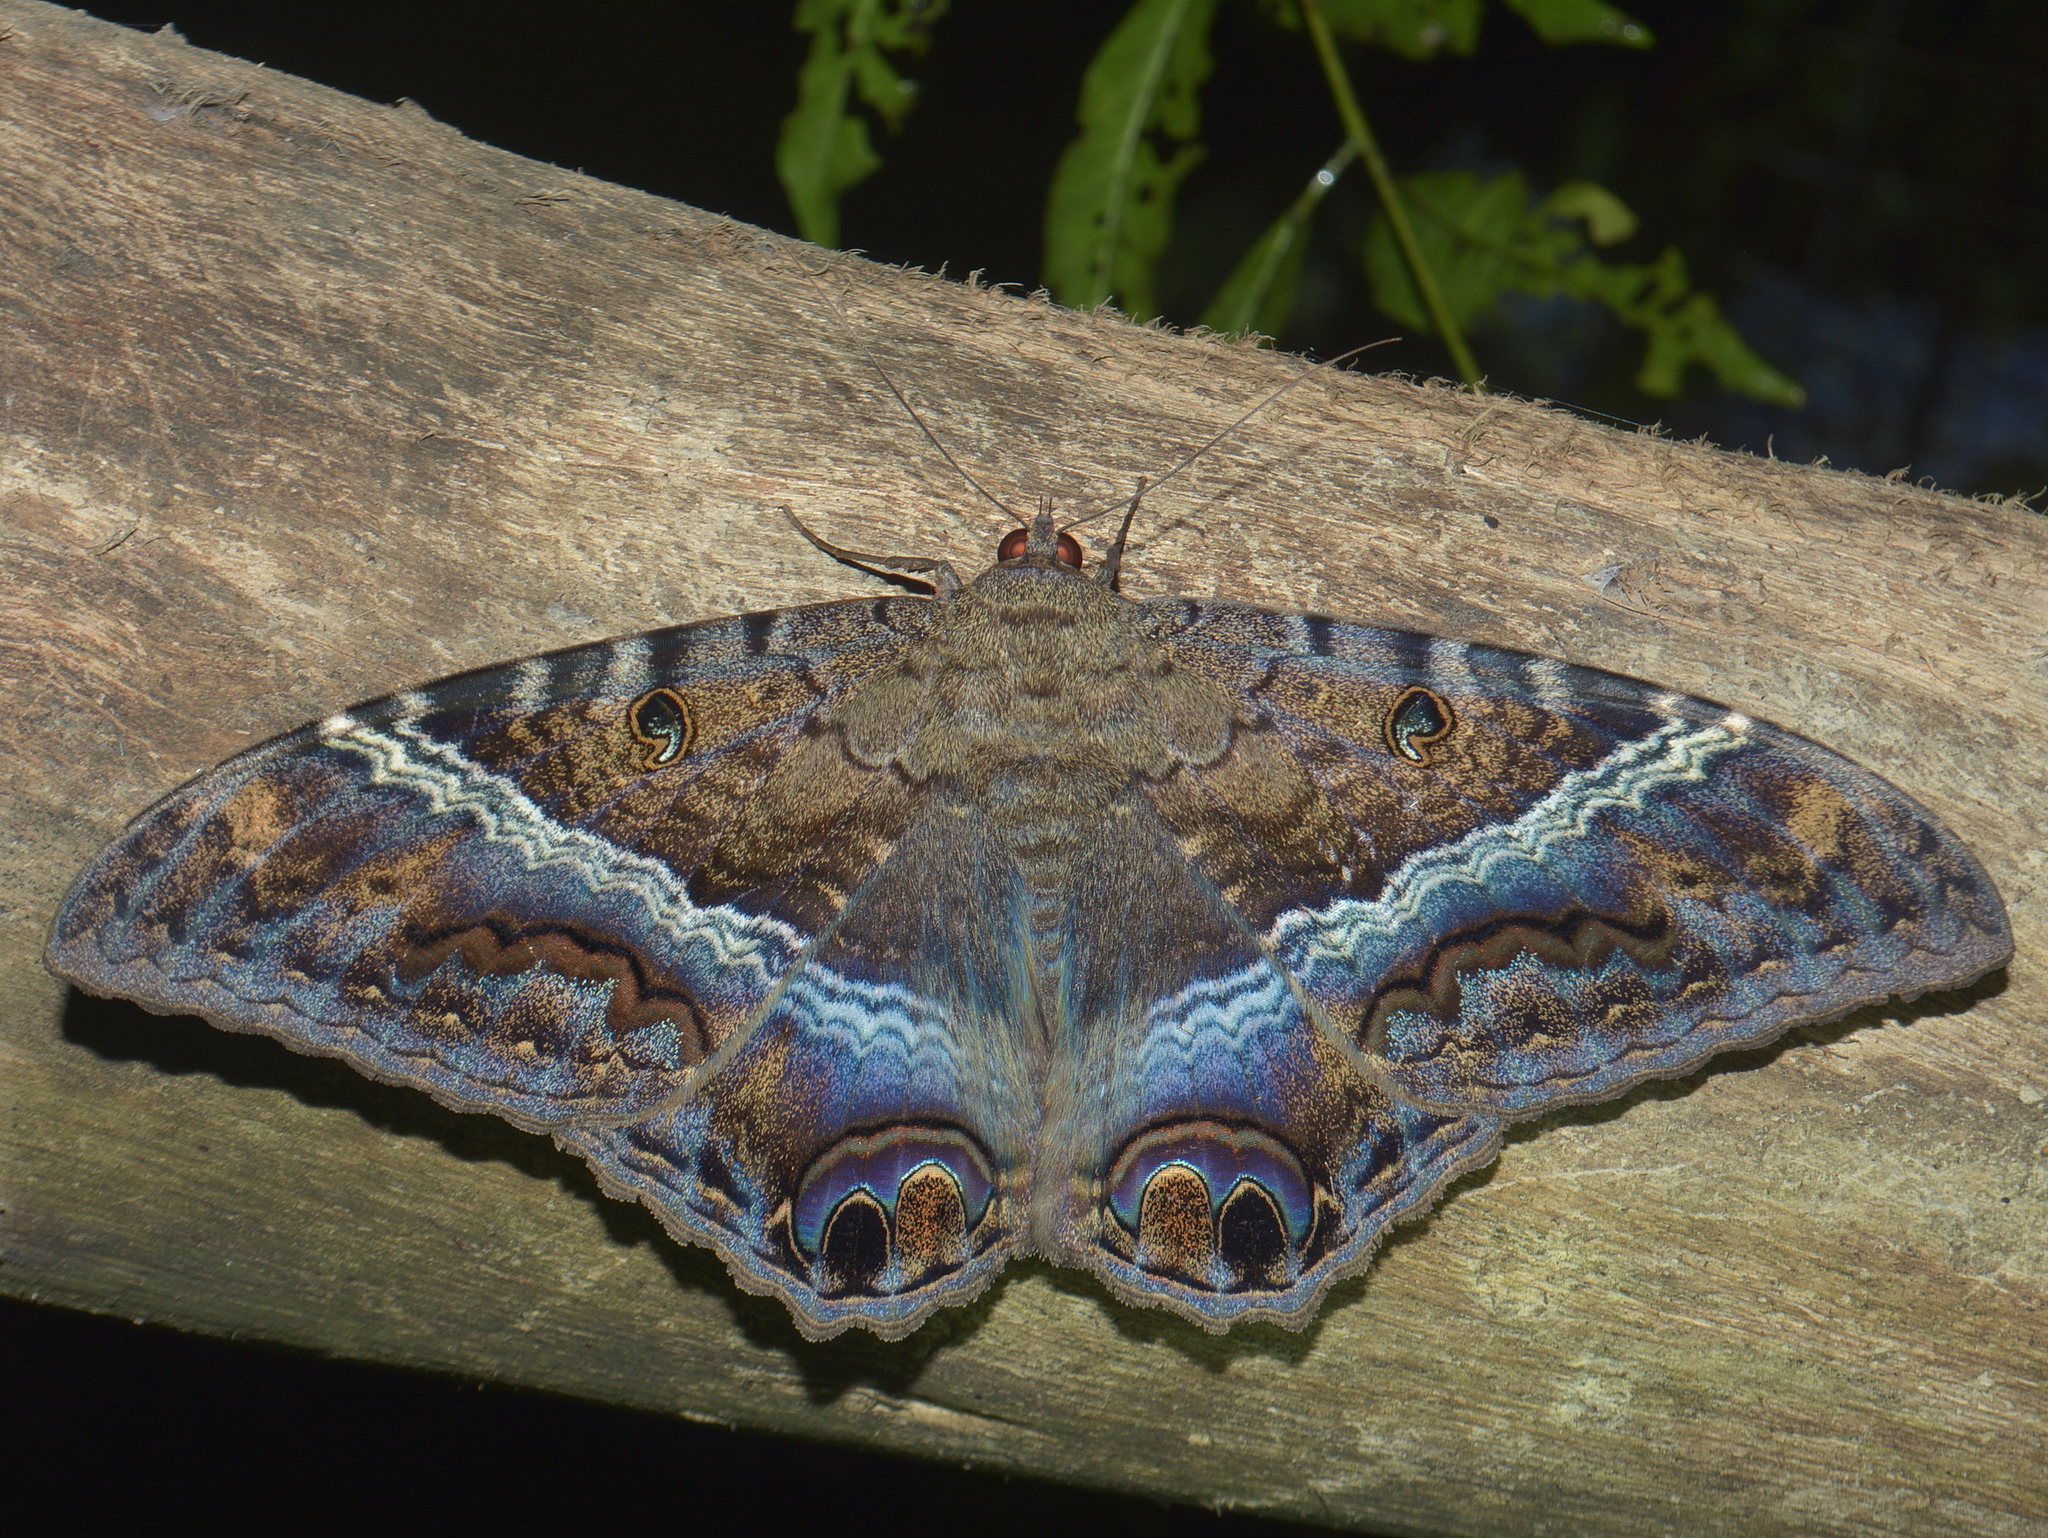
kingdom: Animalia
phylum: Arthropoda
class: Insecta
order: Lepidoptera
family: Erebidae
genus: Ascalapha
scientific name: Ascalapha odorata
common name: Black witch
